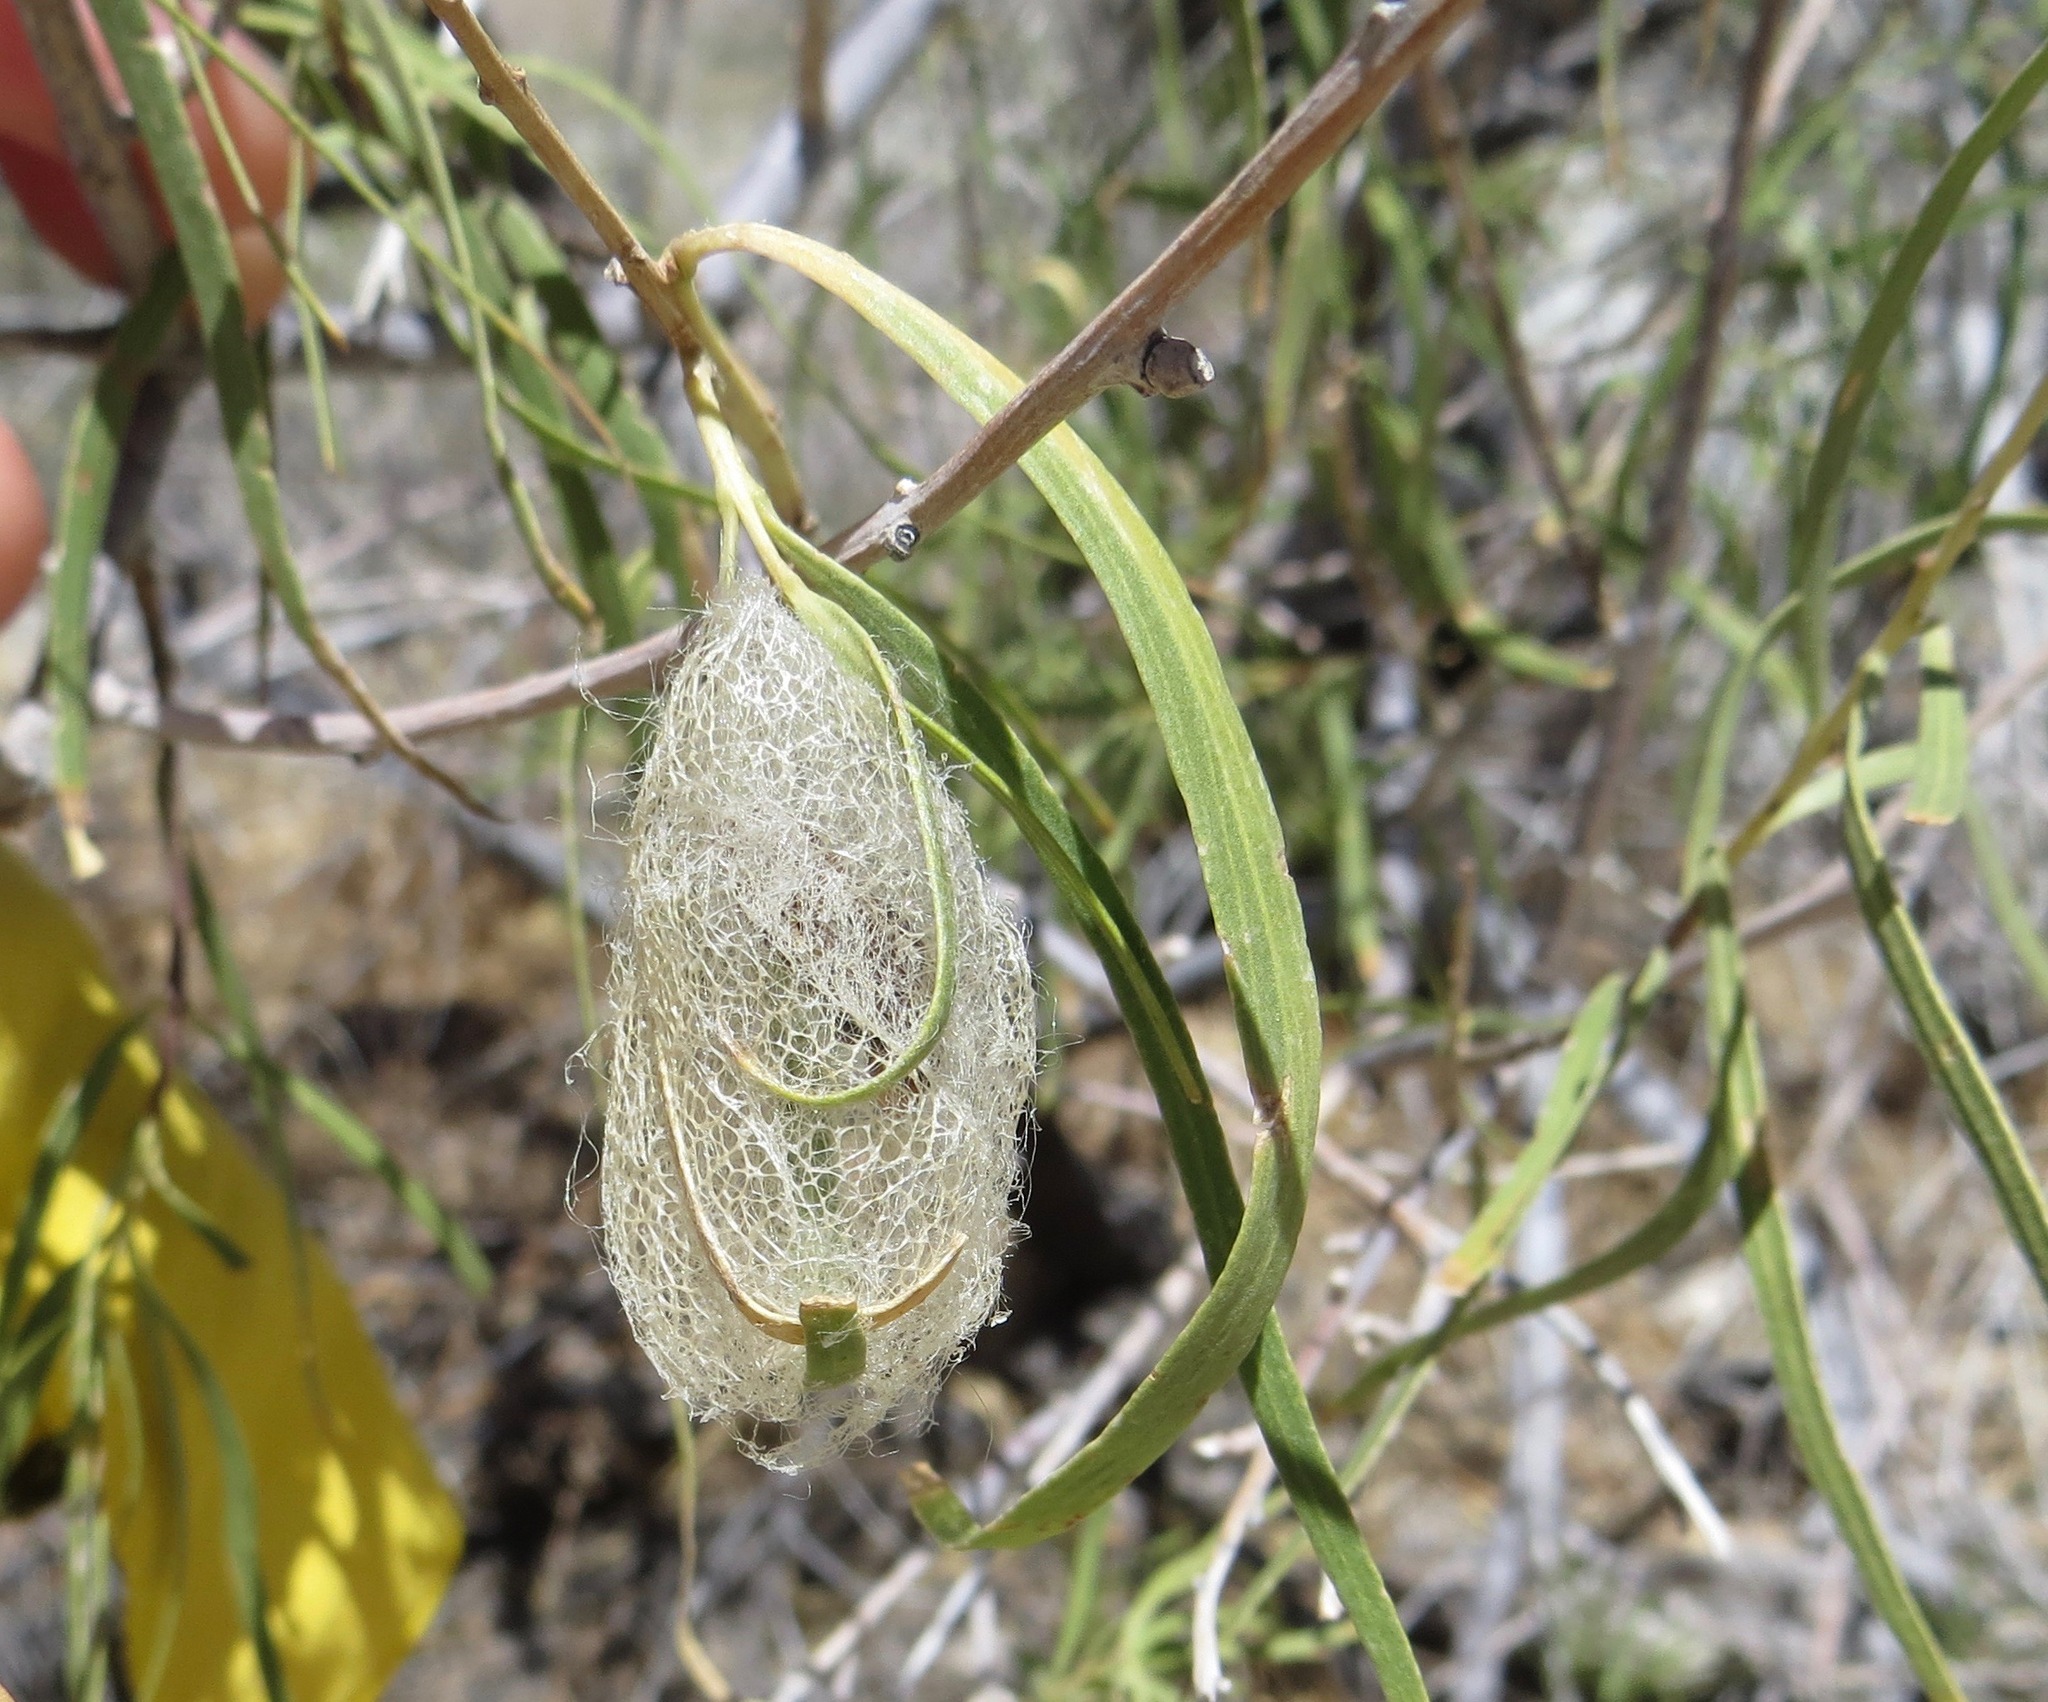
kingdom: Animalia
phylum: Arthropoda
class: Insecta
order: Lepidoptera
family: Geometridae
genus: Eucaterva
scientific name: Eucaterva variaria
